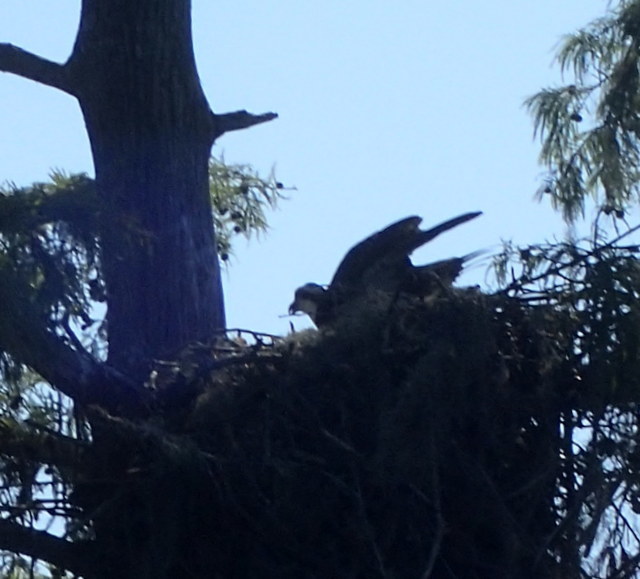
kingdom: Animalia
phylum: Chordata
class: Aves
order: Accipitriformes
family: Pandionidae
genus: Pandion
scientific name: Pandion haliaetus
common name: Osprey
